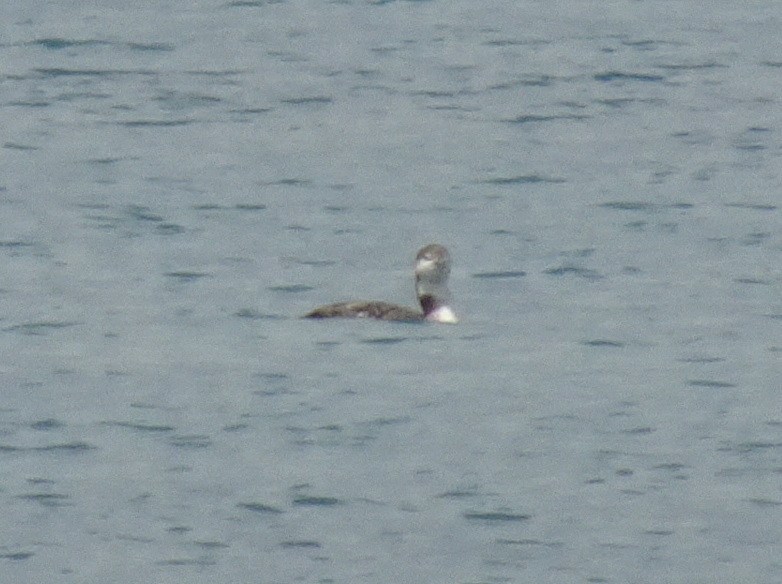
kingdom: Animalia
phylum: Chordata
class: Aves
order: Gaviiformes
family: Gaviidae
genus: Gavia
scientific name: Gavia immer
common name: Common loon
